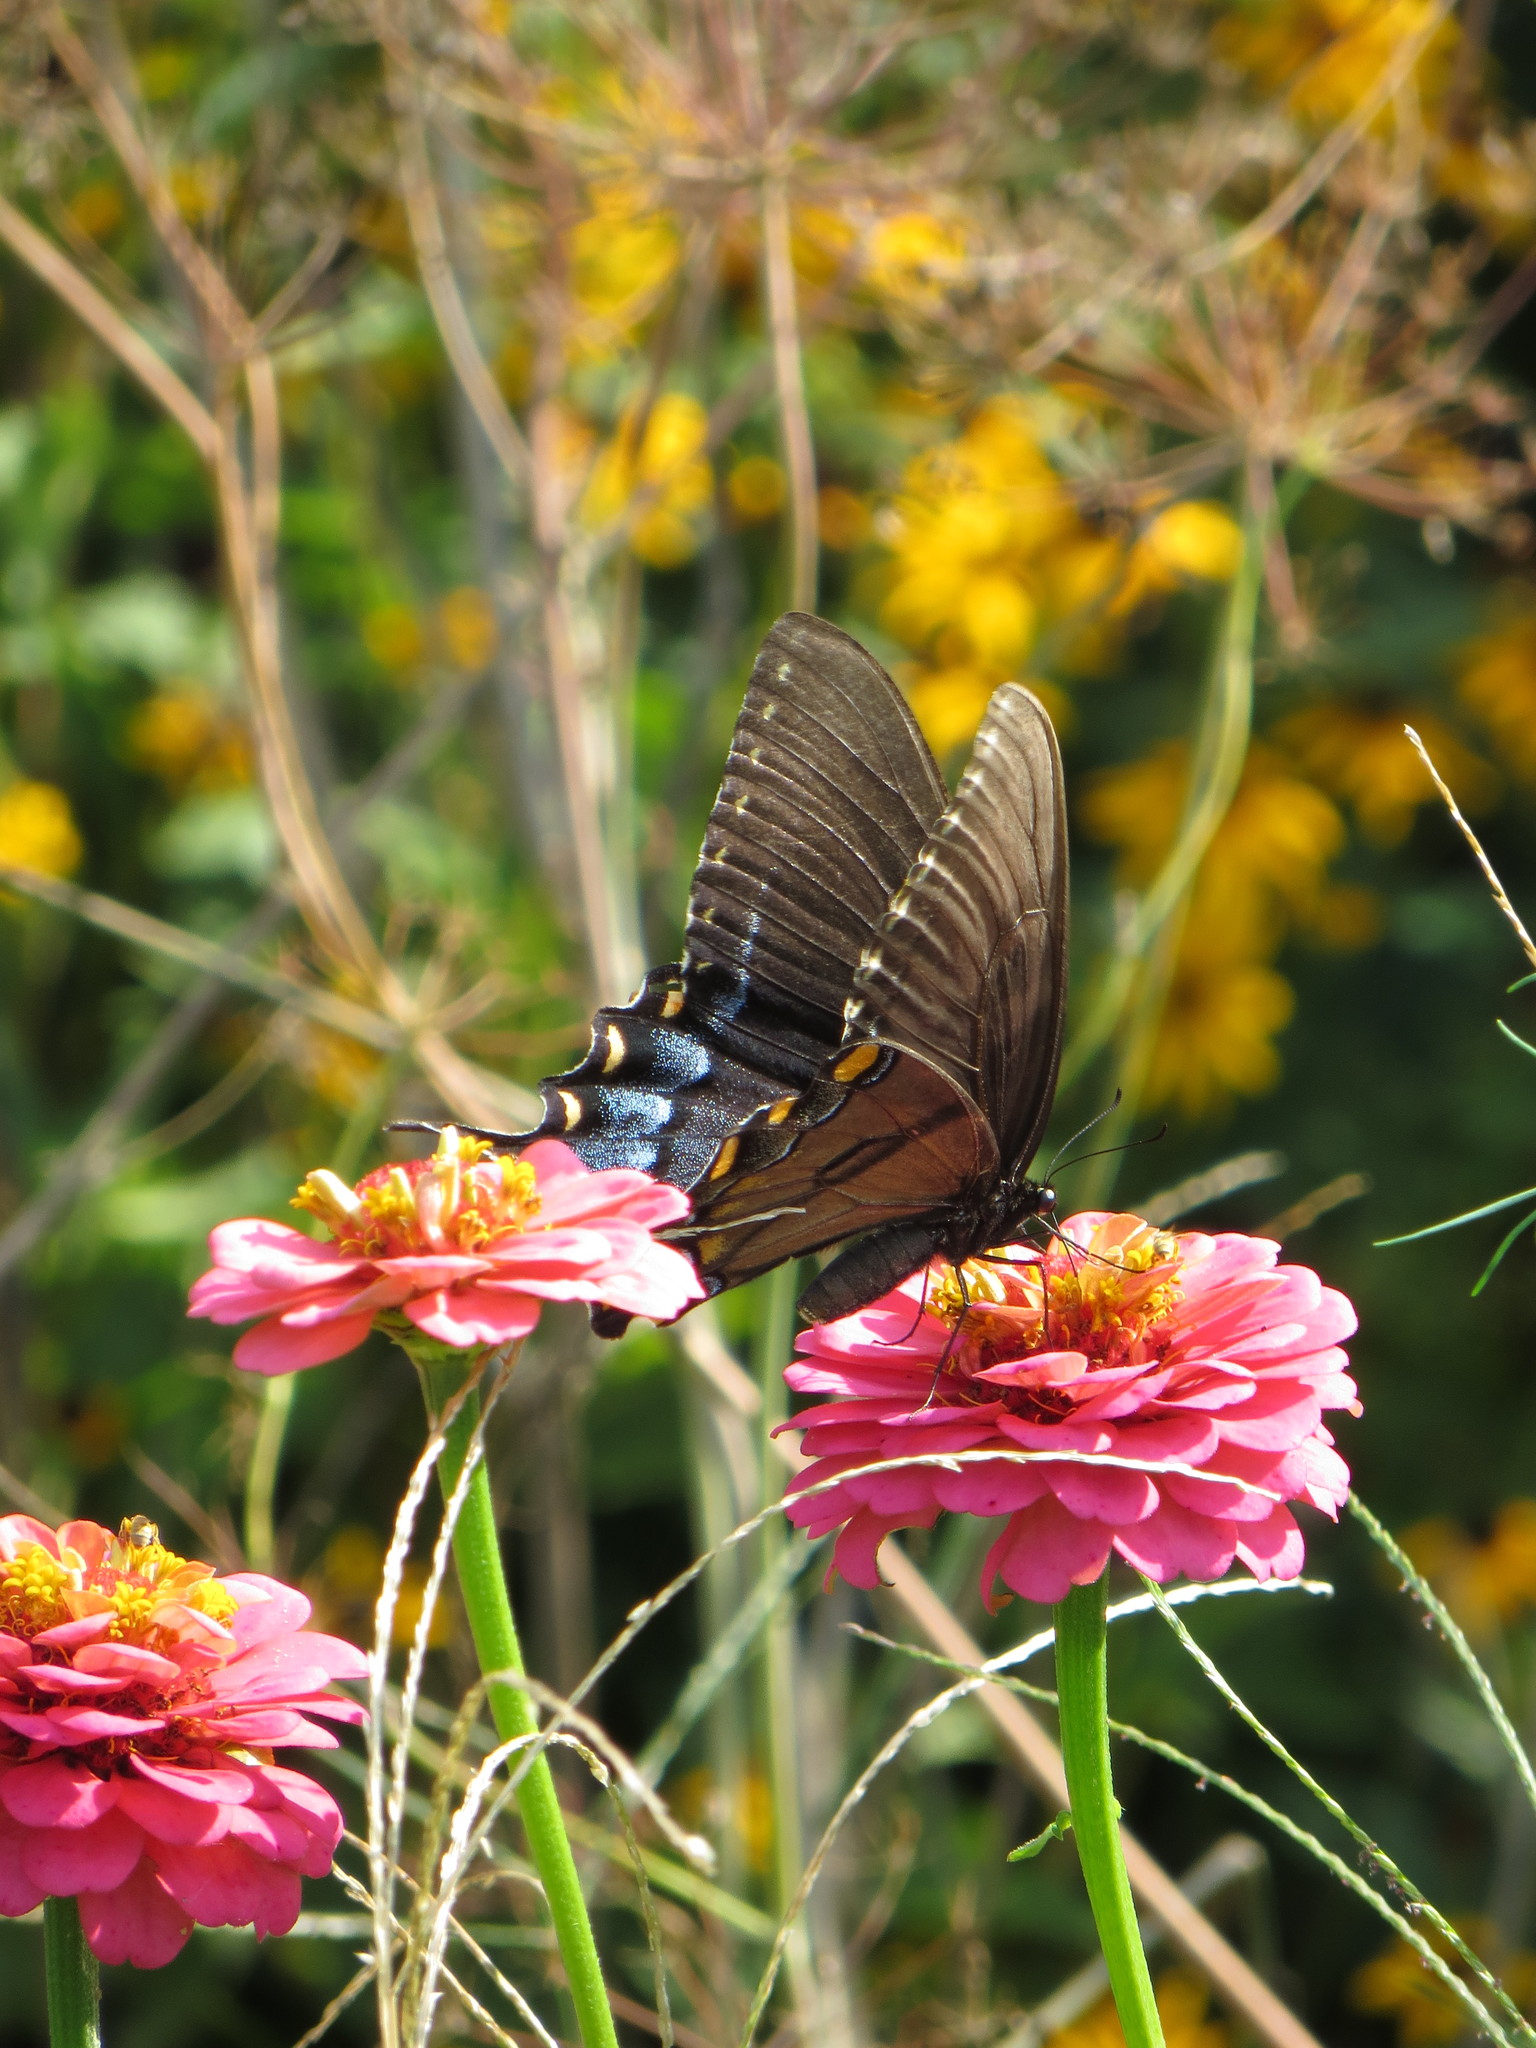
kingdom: Animalia
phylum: Arthropoda
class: Insecta
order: Lepidoptera
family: Papilionidae
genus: Papilio
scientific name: Papilio glaucus
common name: Tiger swallowtail
